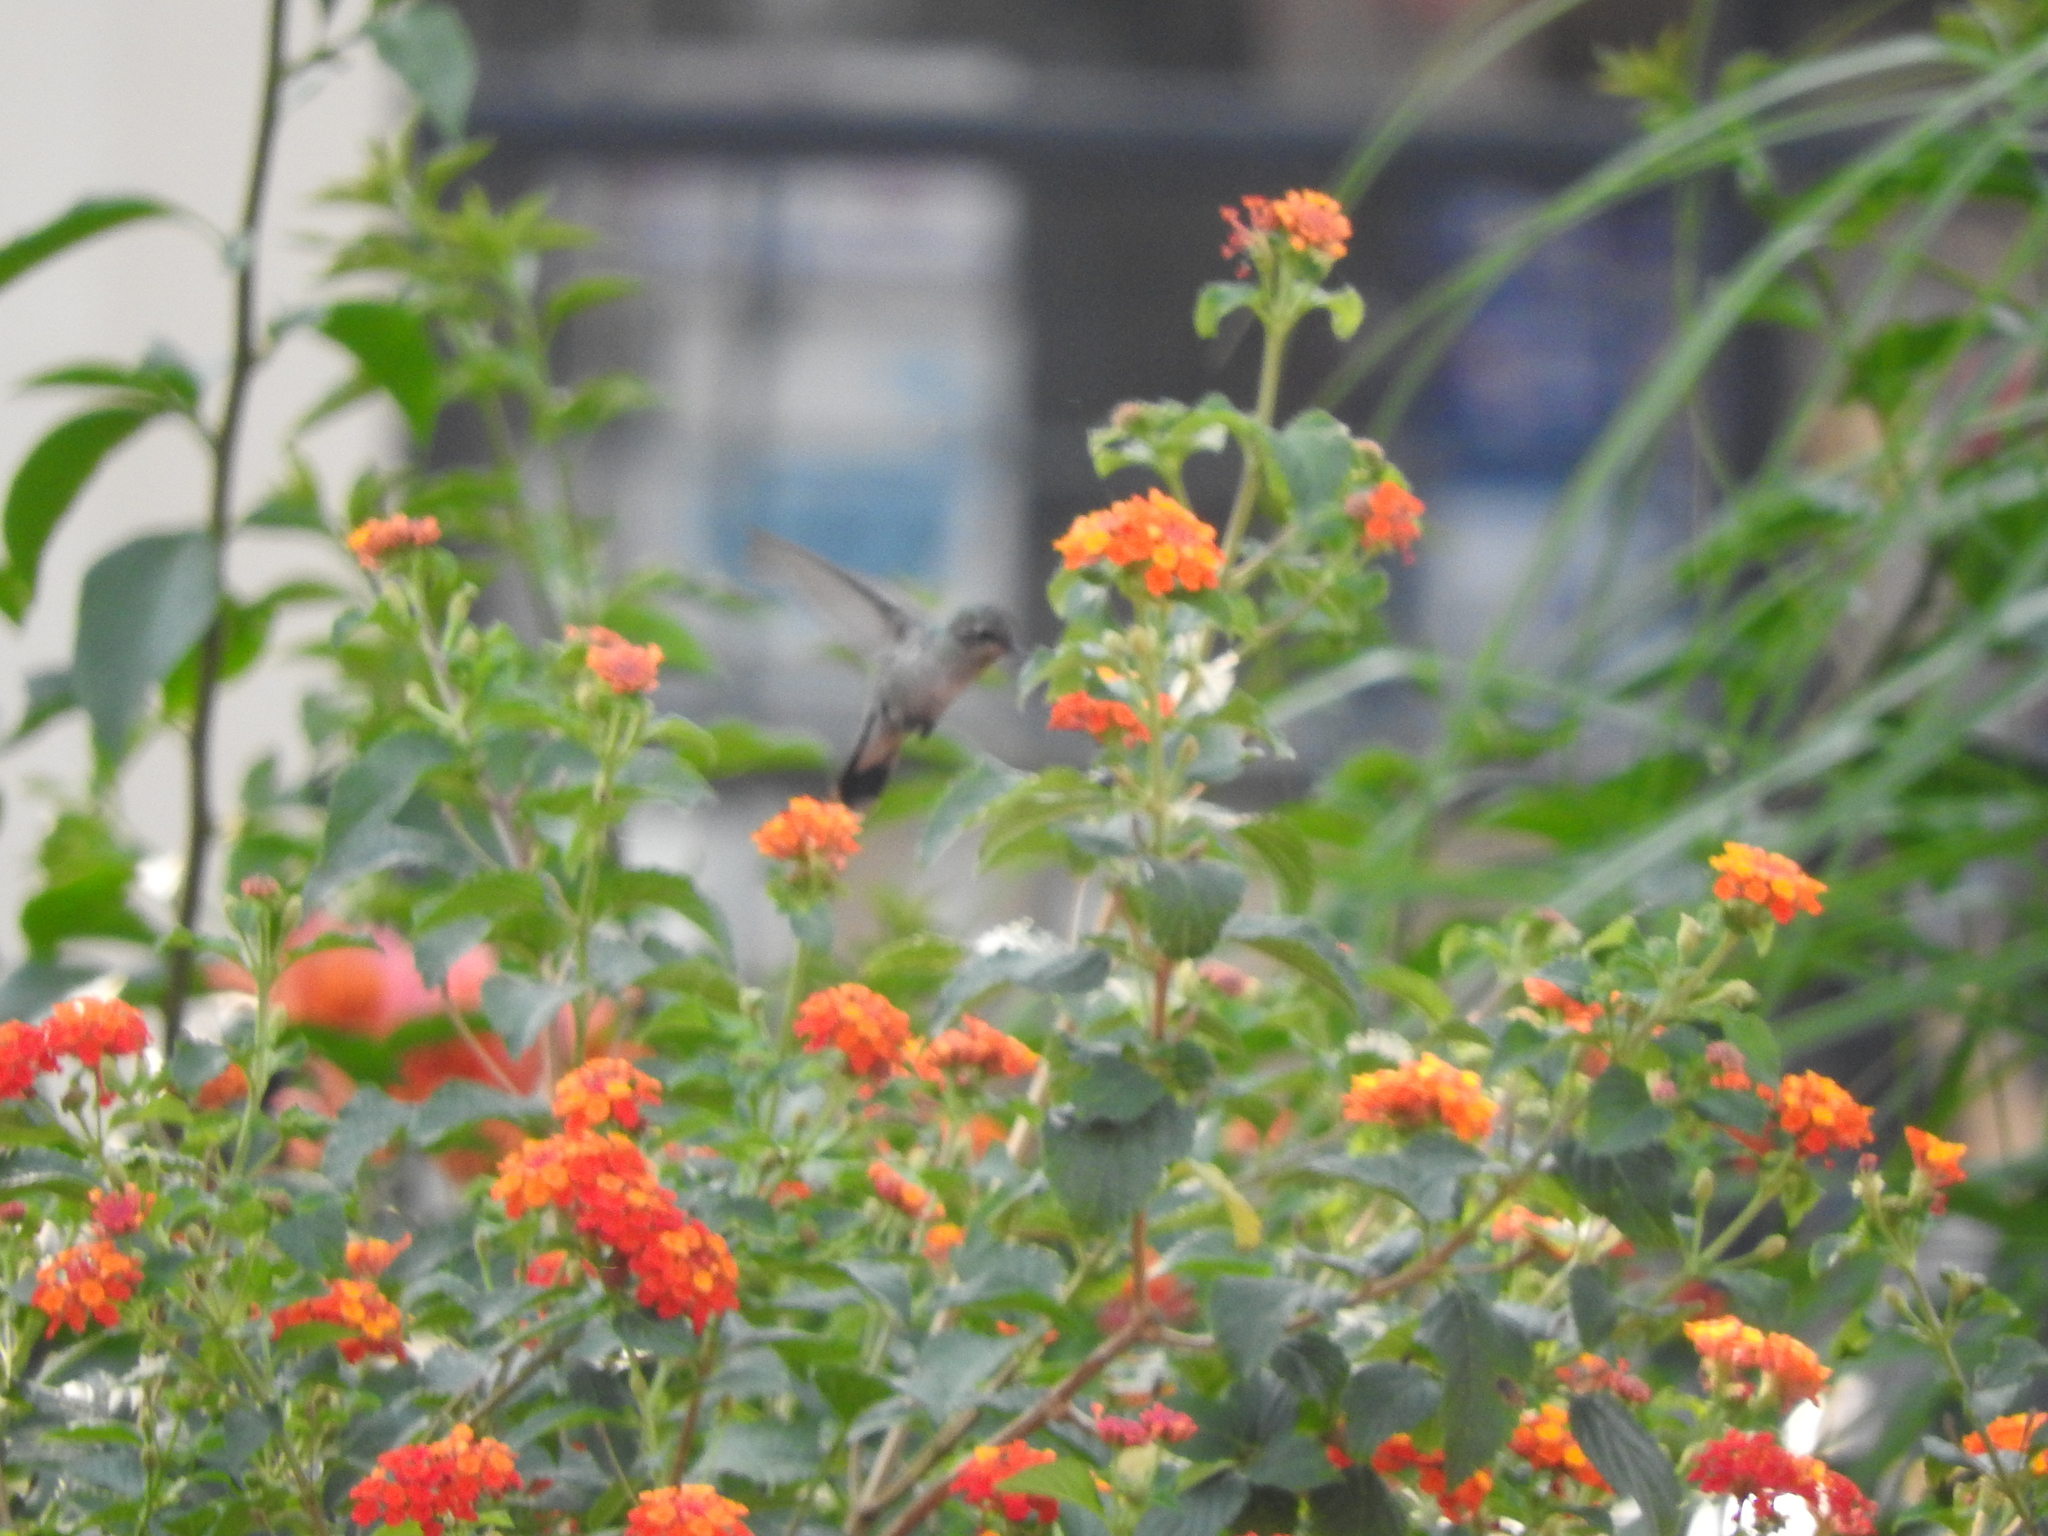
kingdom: Animalia
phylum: Chordata
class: Aves
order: Apodiformes
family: Trochilidae
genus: Cynanthus
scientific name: Cynanthus latirostris
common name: Broad-billed hummingbird
